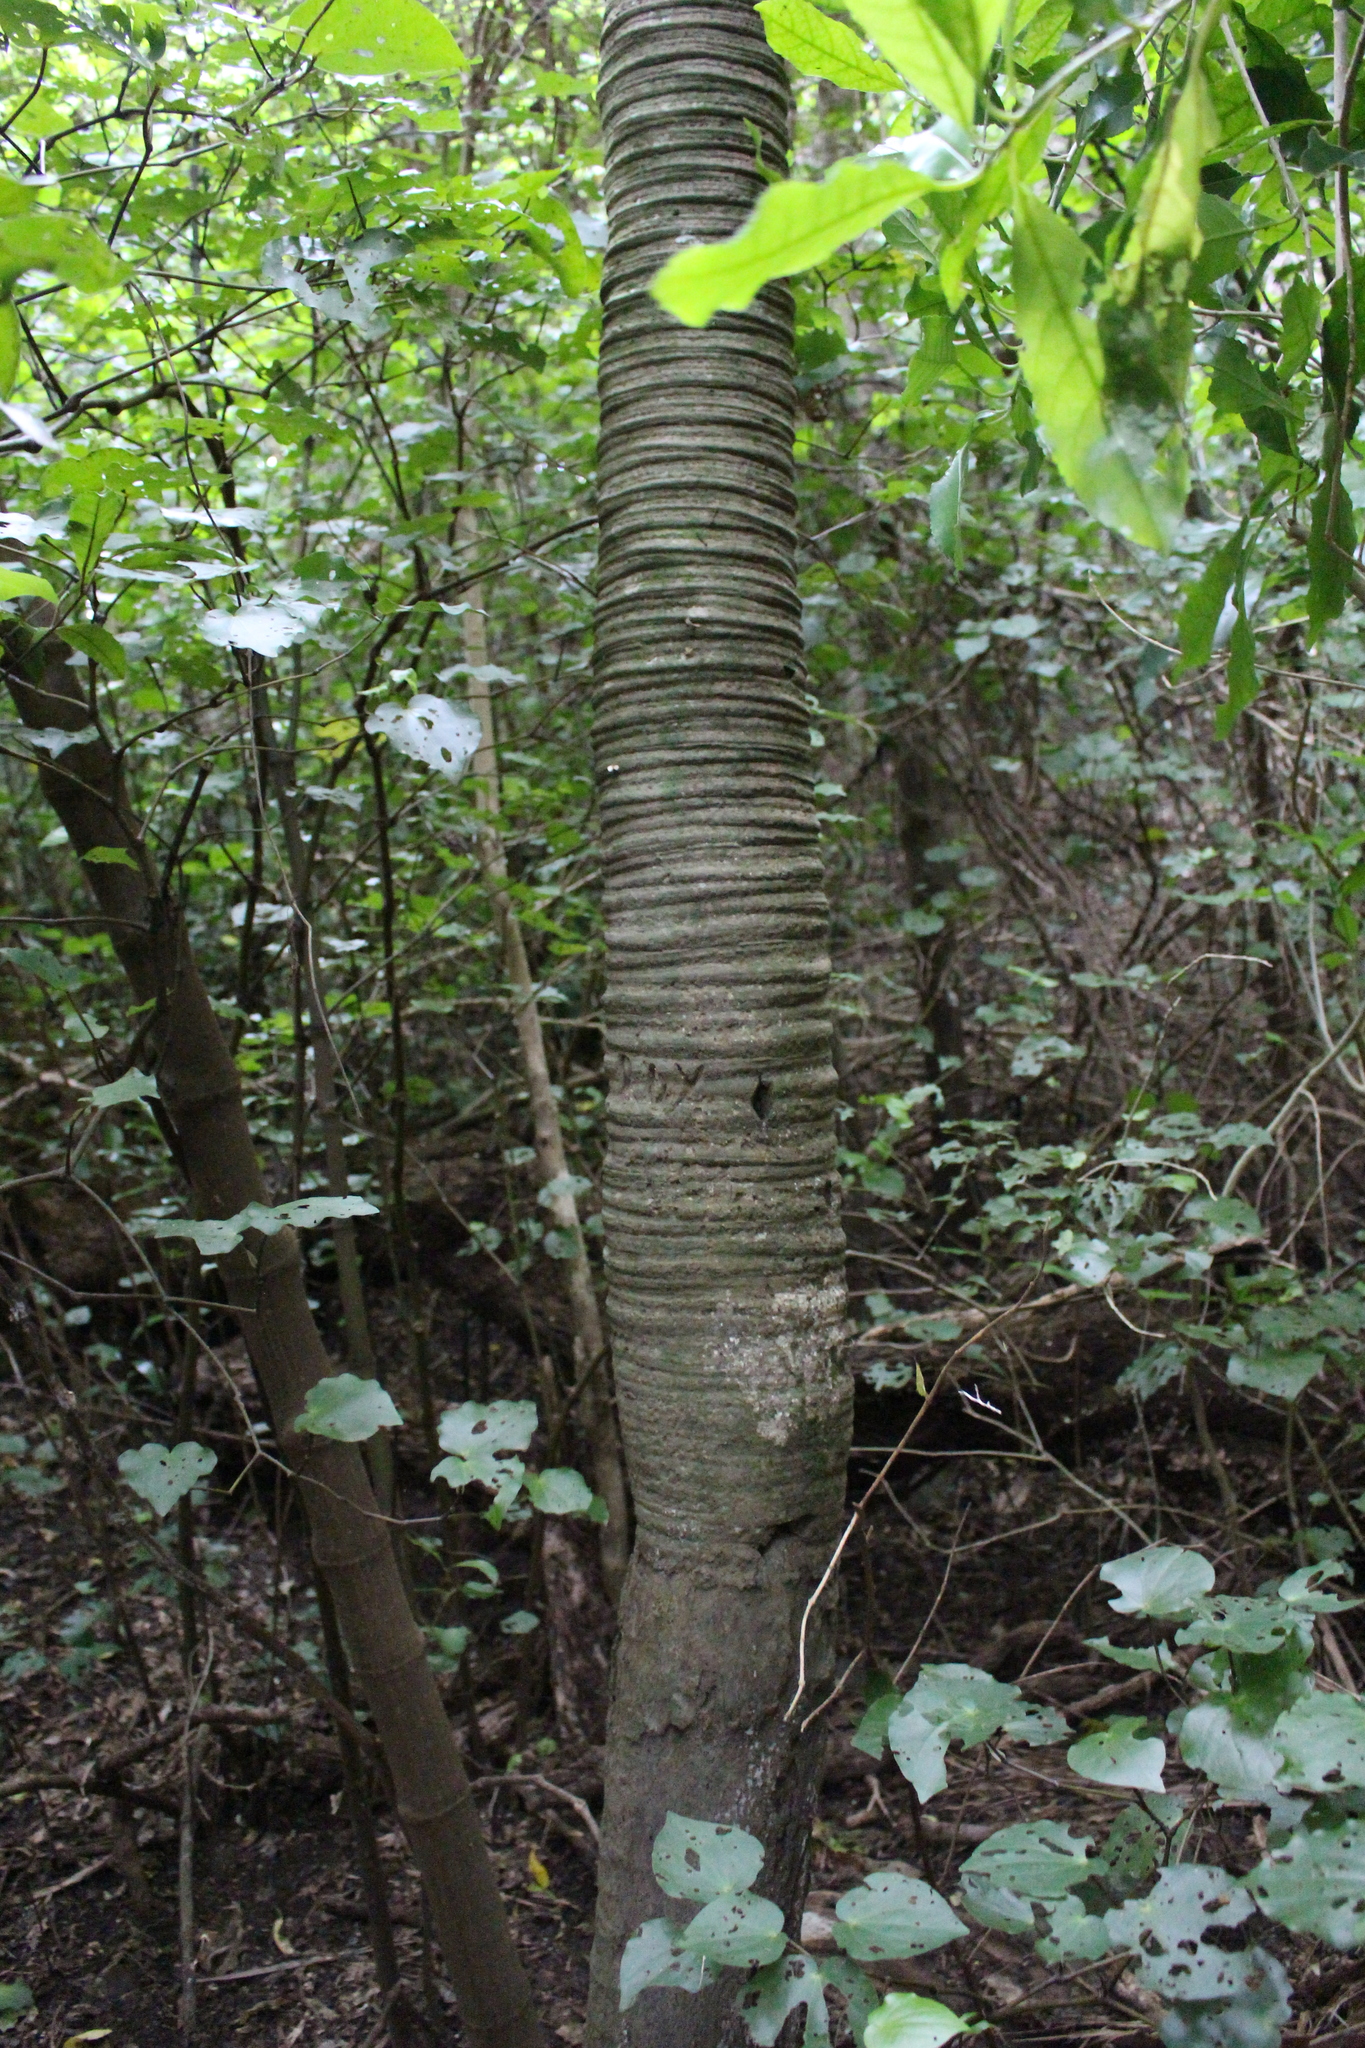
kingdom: Plantae
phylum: Tracheophyta
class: Liliopsida
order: Arecales
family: Arecaceae
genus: Rhopalostylis
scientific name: Rhopalostylis sapida
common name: Feather-duster palm
